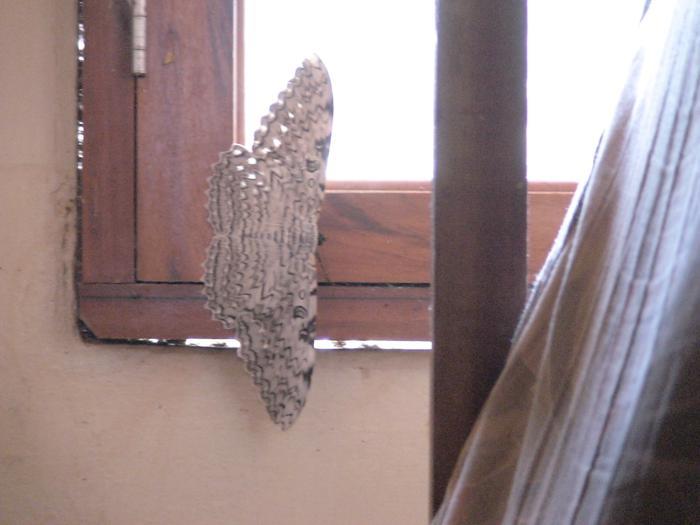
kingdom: Animalia
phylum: Arthropoda
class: Insecta
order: Lepidoptera
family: Erebidae
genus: Thysania
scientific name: Thysania agrippina
